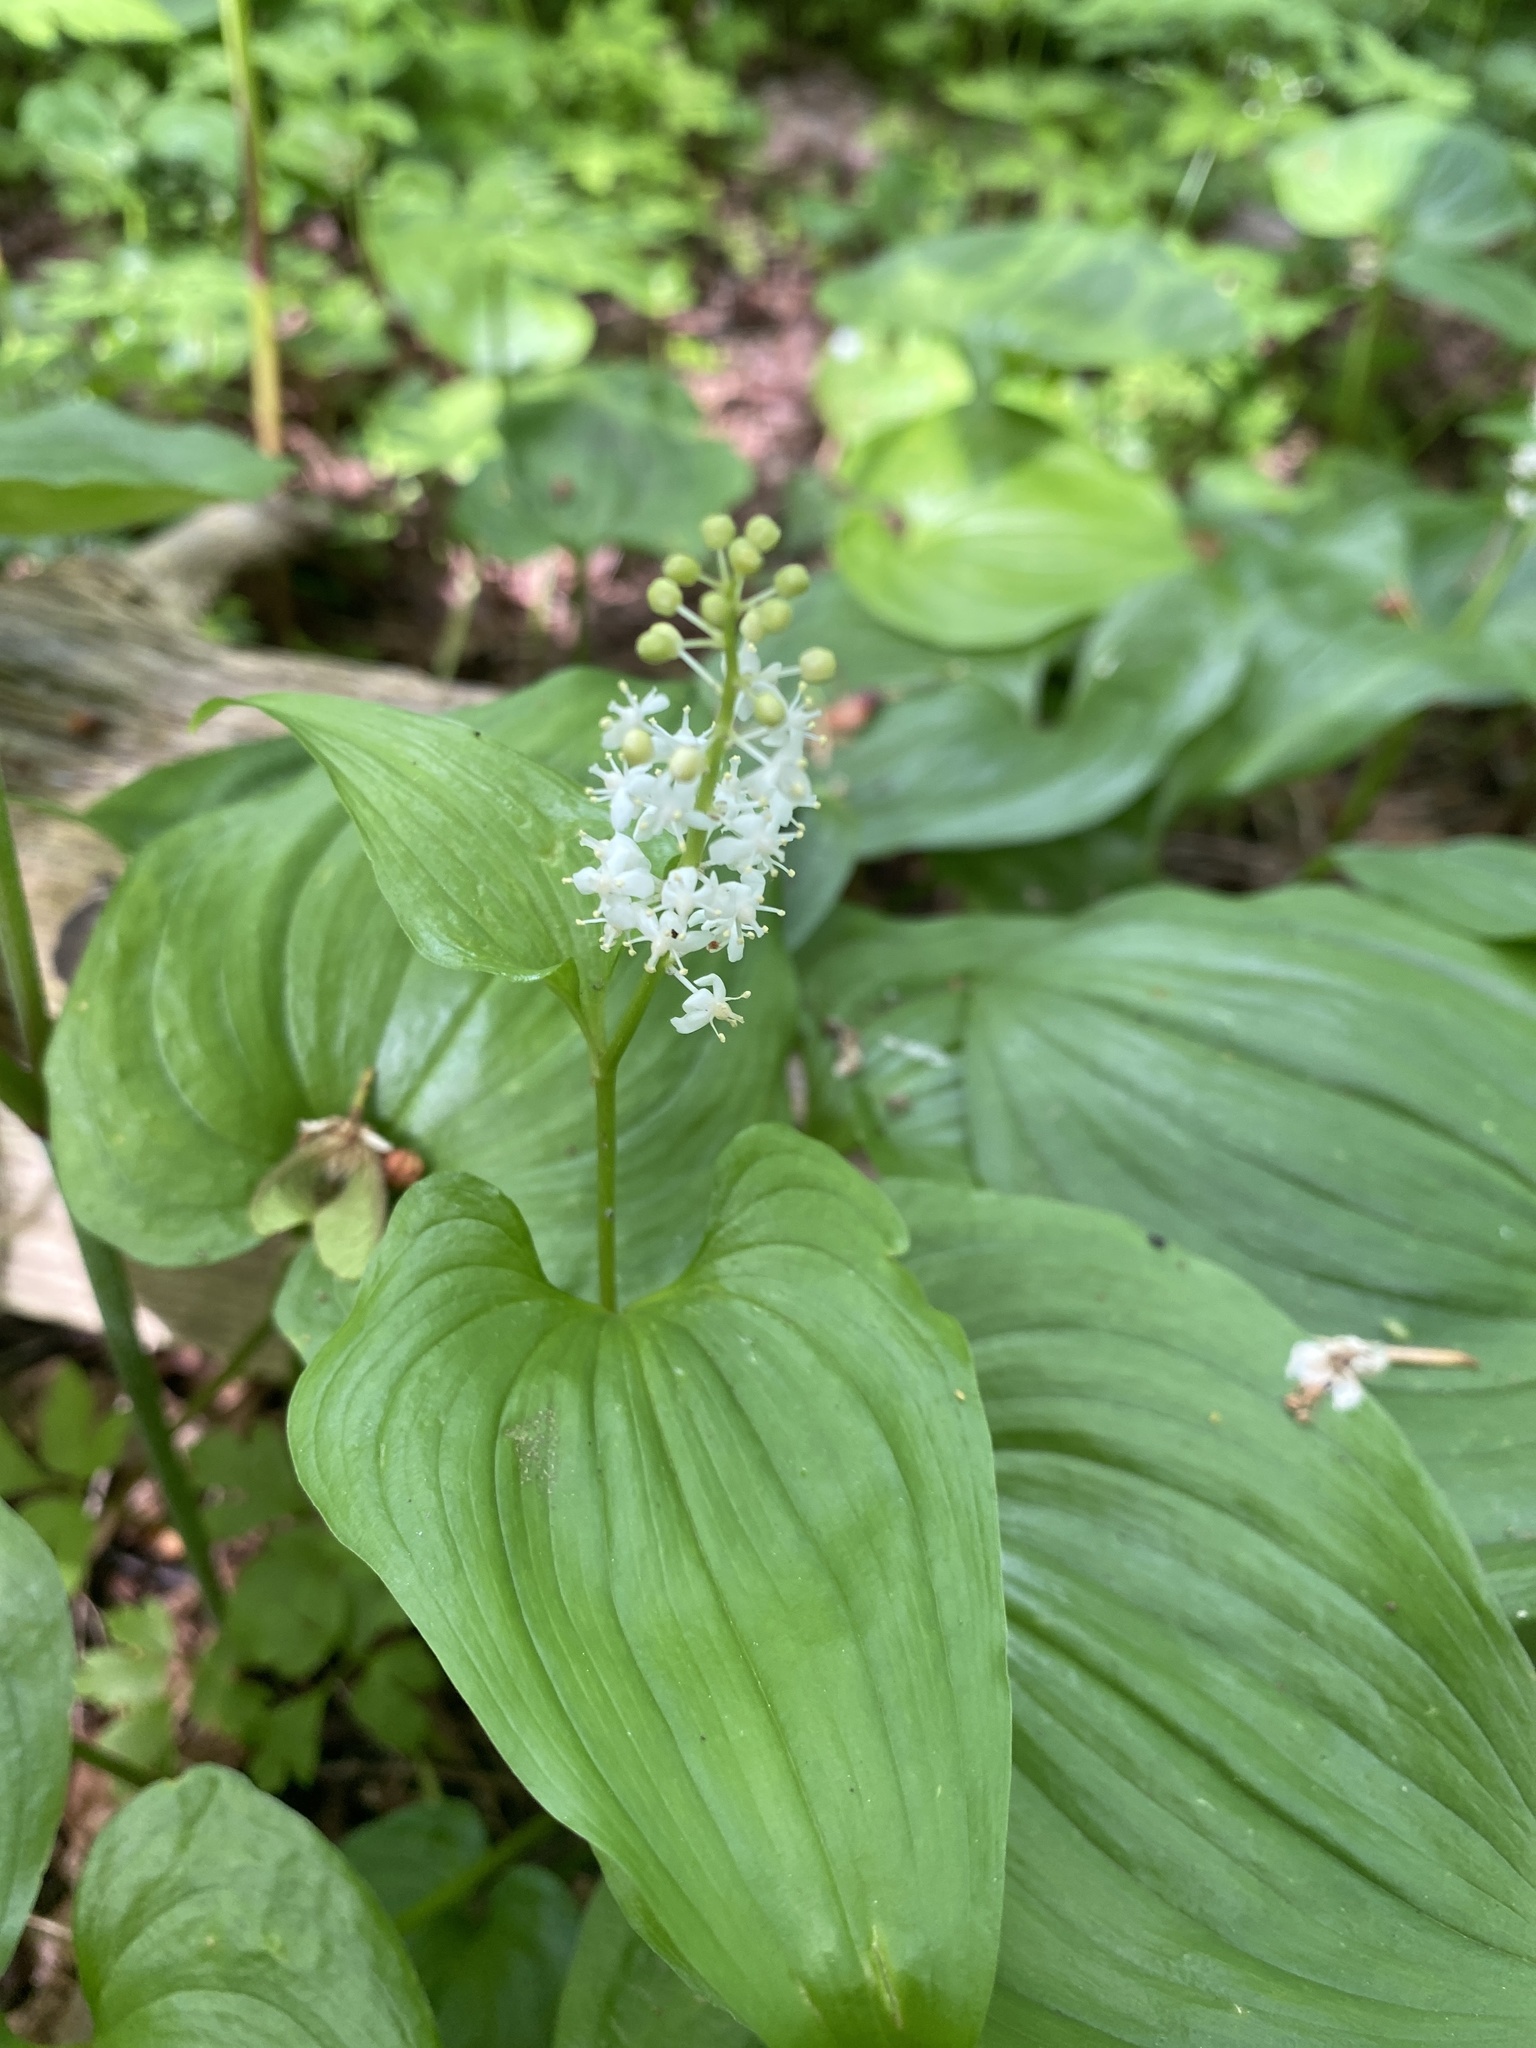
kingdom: Plantae
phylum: Tracheophyta
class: Liliopsida
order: Asparagales
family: Asparagaceae
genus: Maianthemum
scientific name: Maianthemum dilatatum
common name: False lily-of-the-valley
